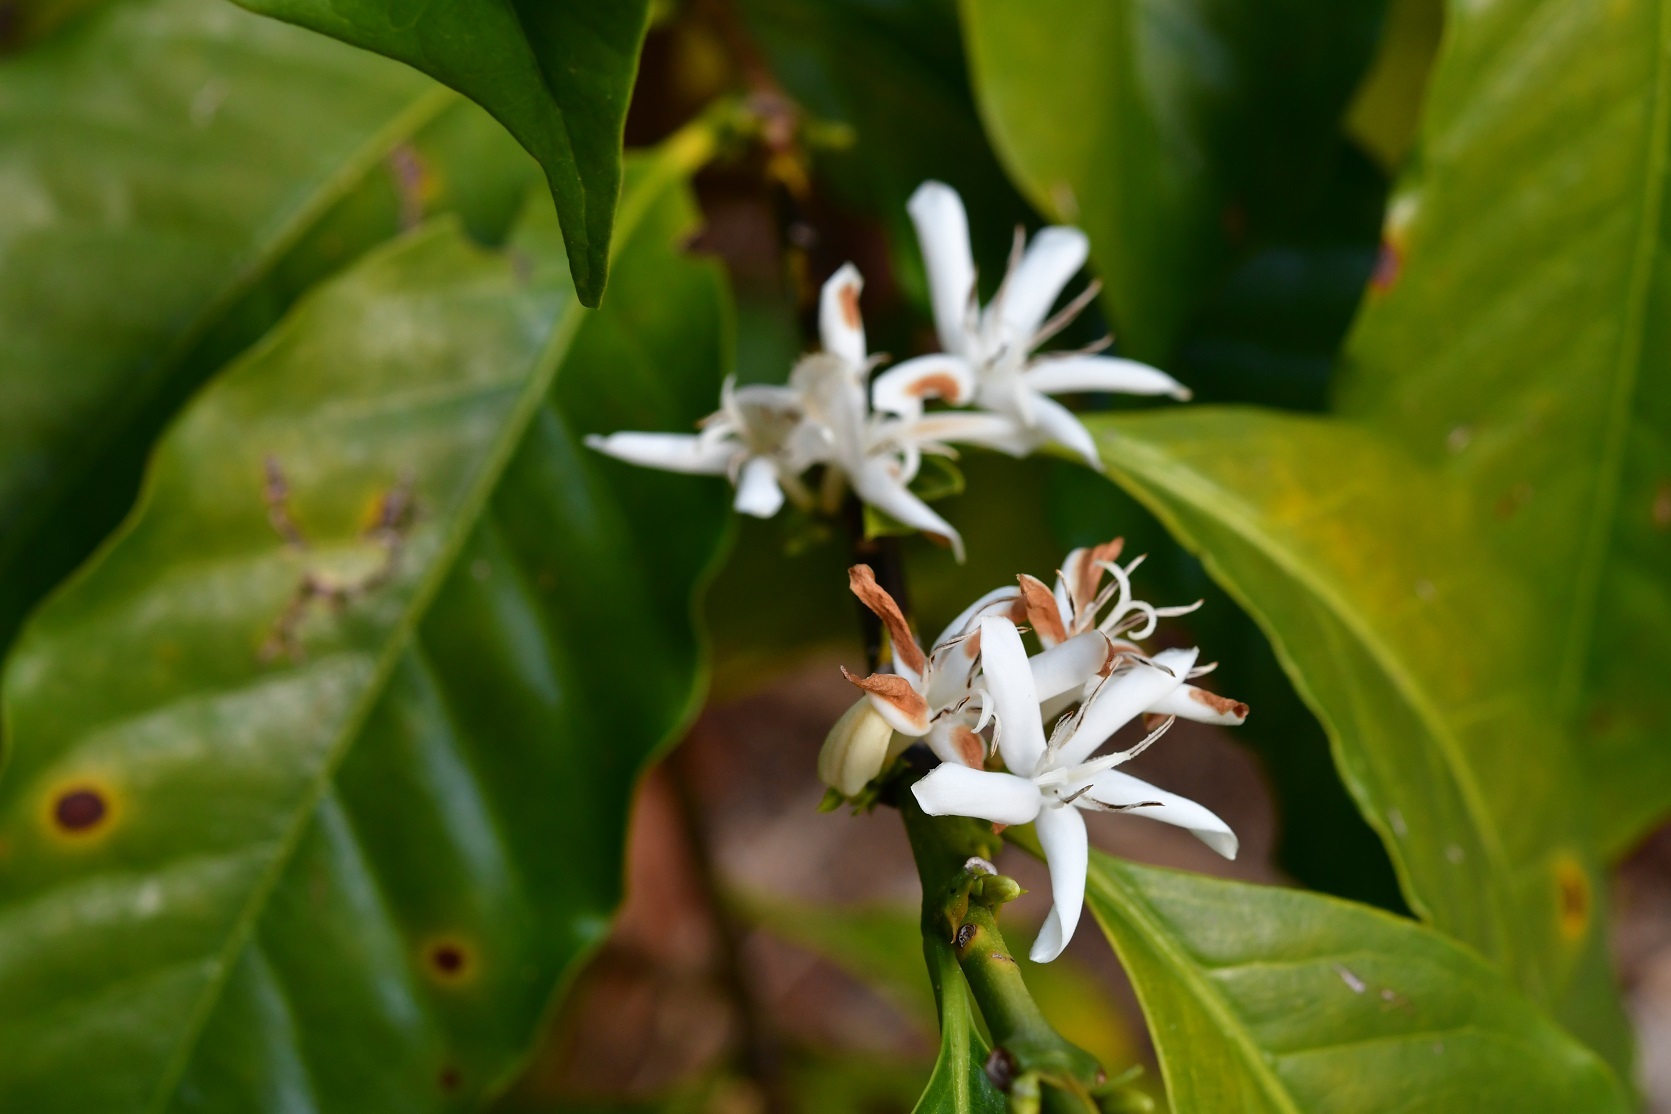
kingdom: Plantae
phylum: Tracheophyta
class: Magnoliopsida
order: Gentianales
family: Rubiaceae
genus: Coffea
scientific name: Coffea arabica
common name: Coffee
